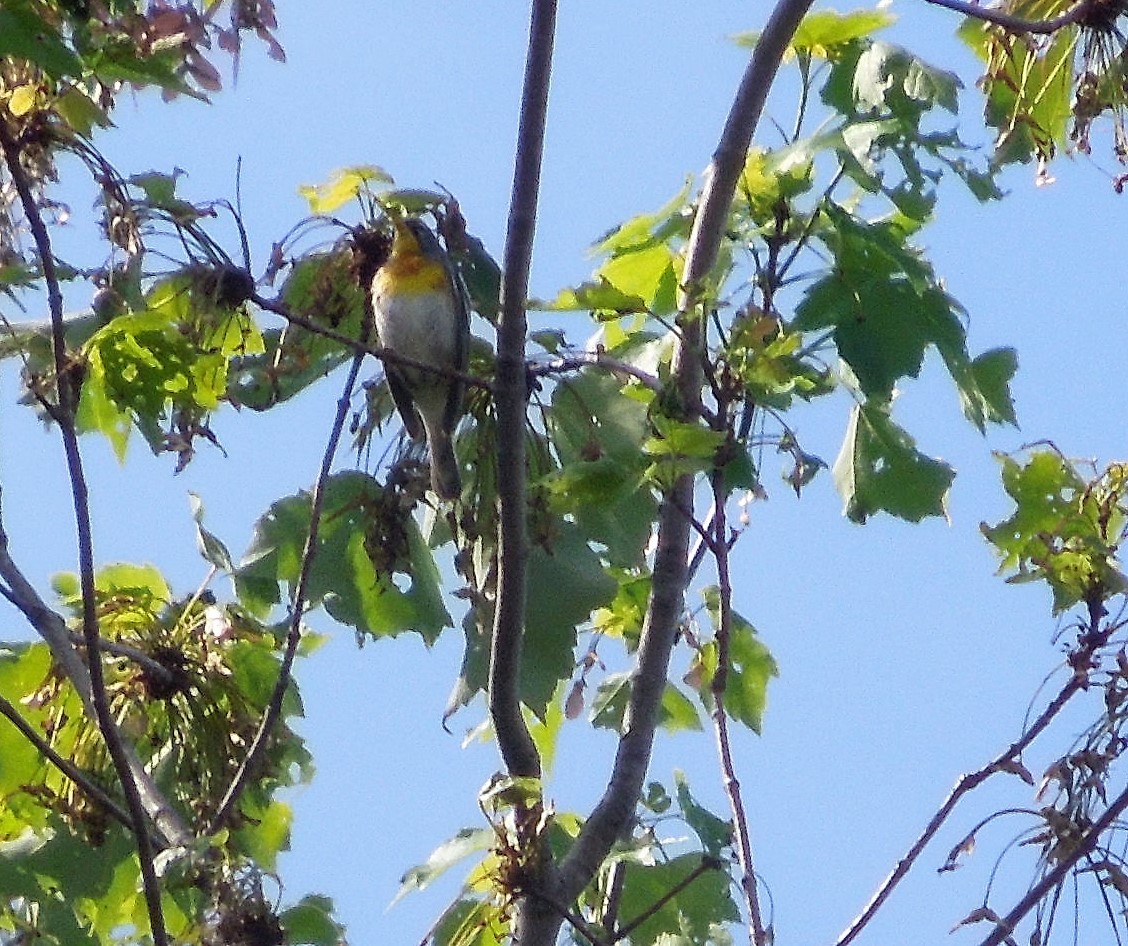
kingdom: Animalia
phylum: Chordata
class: Aves
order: Passeriformes
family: Parulidae
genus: Setophaga
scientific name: Setophaga americana
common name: Northern parula
